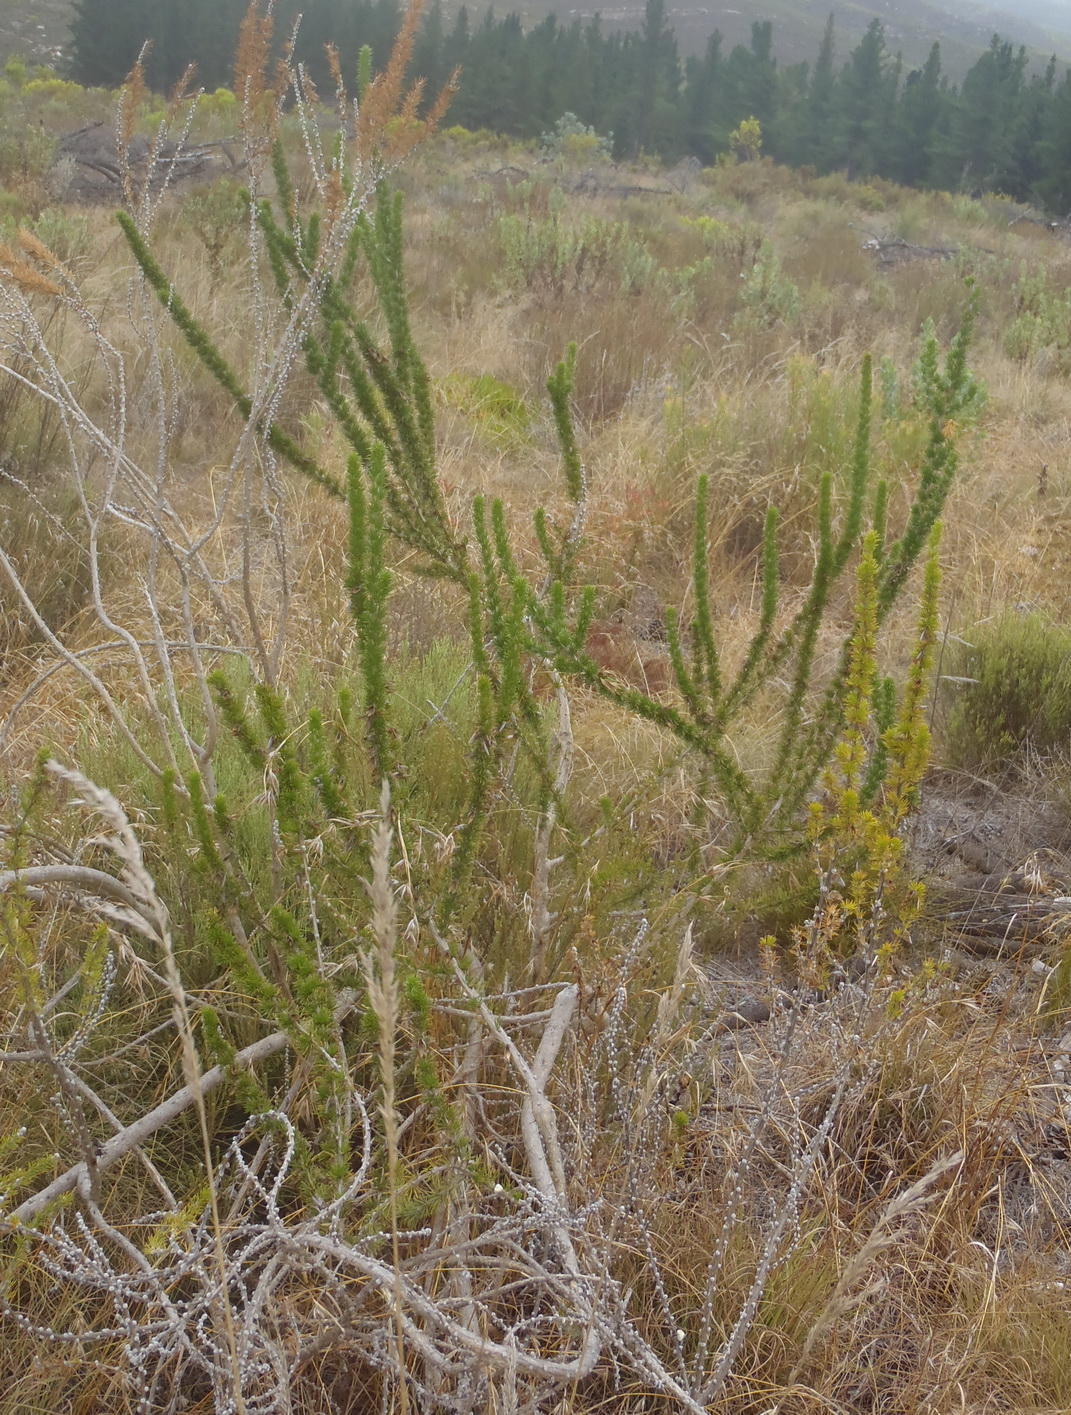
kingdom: Plantae
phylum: Tracheophyta
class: Magnoliopsida
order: Fabales
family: Fabaceae
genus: Aspalathus
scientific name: Aspalathus sceptrumaureum
